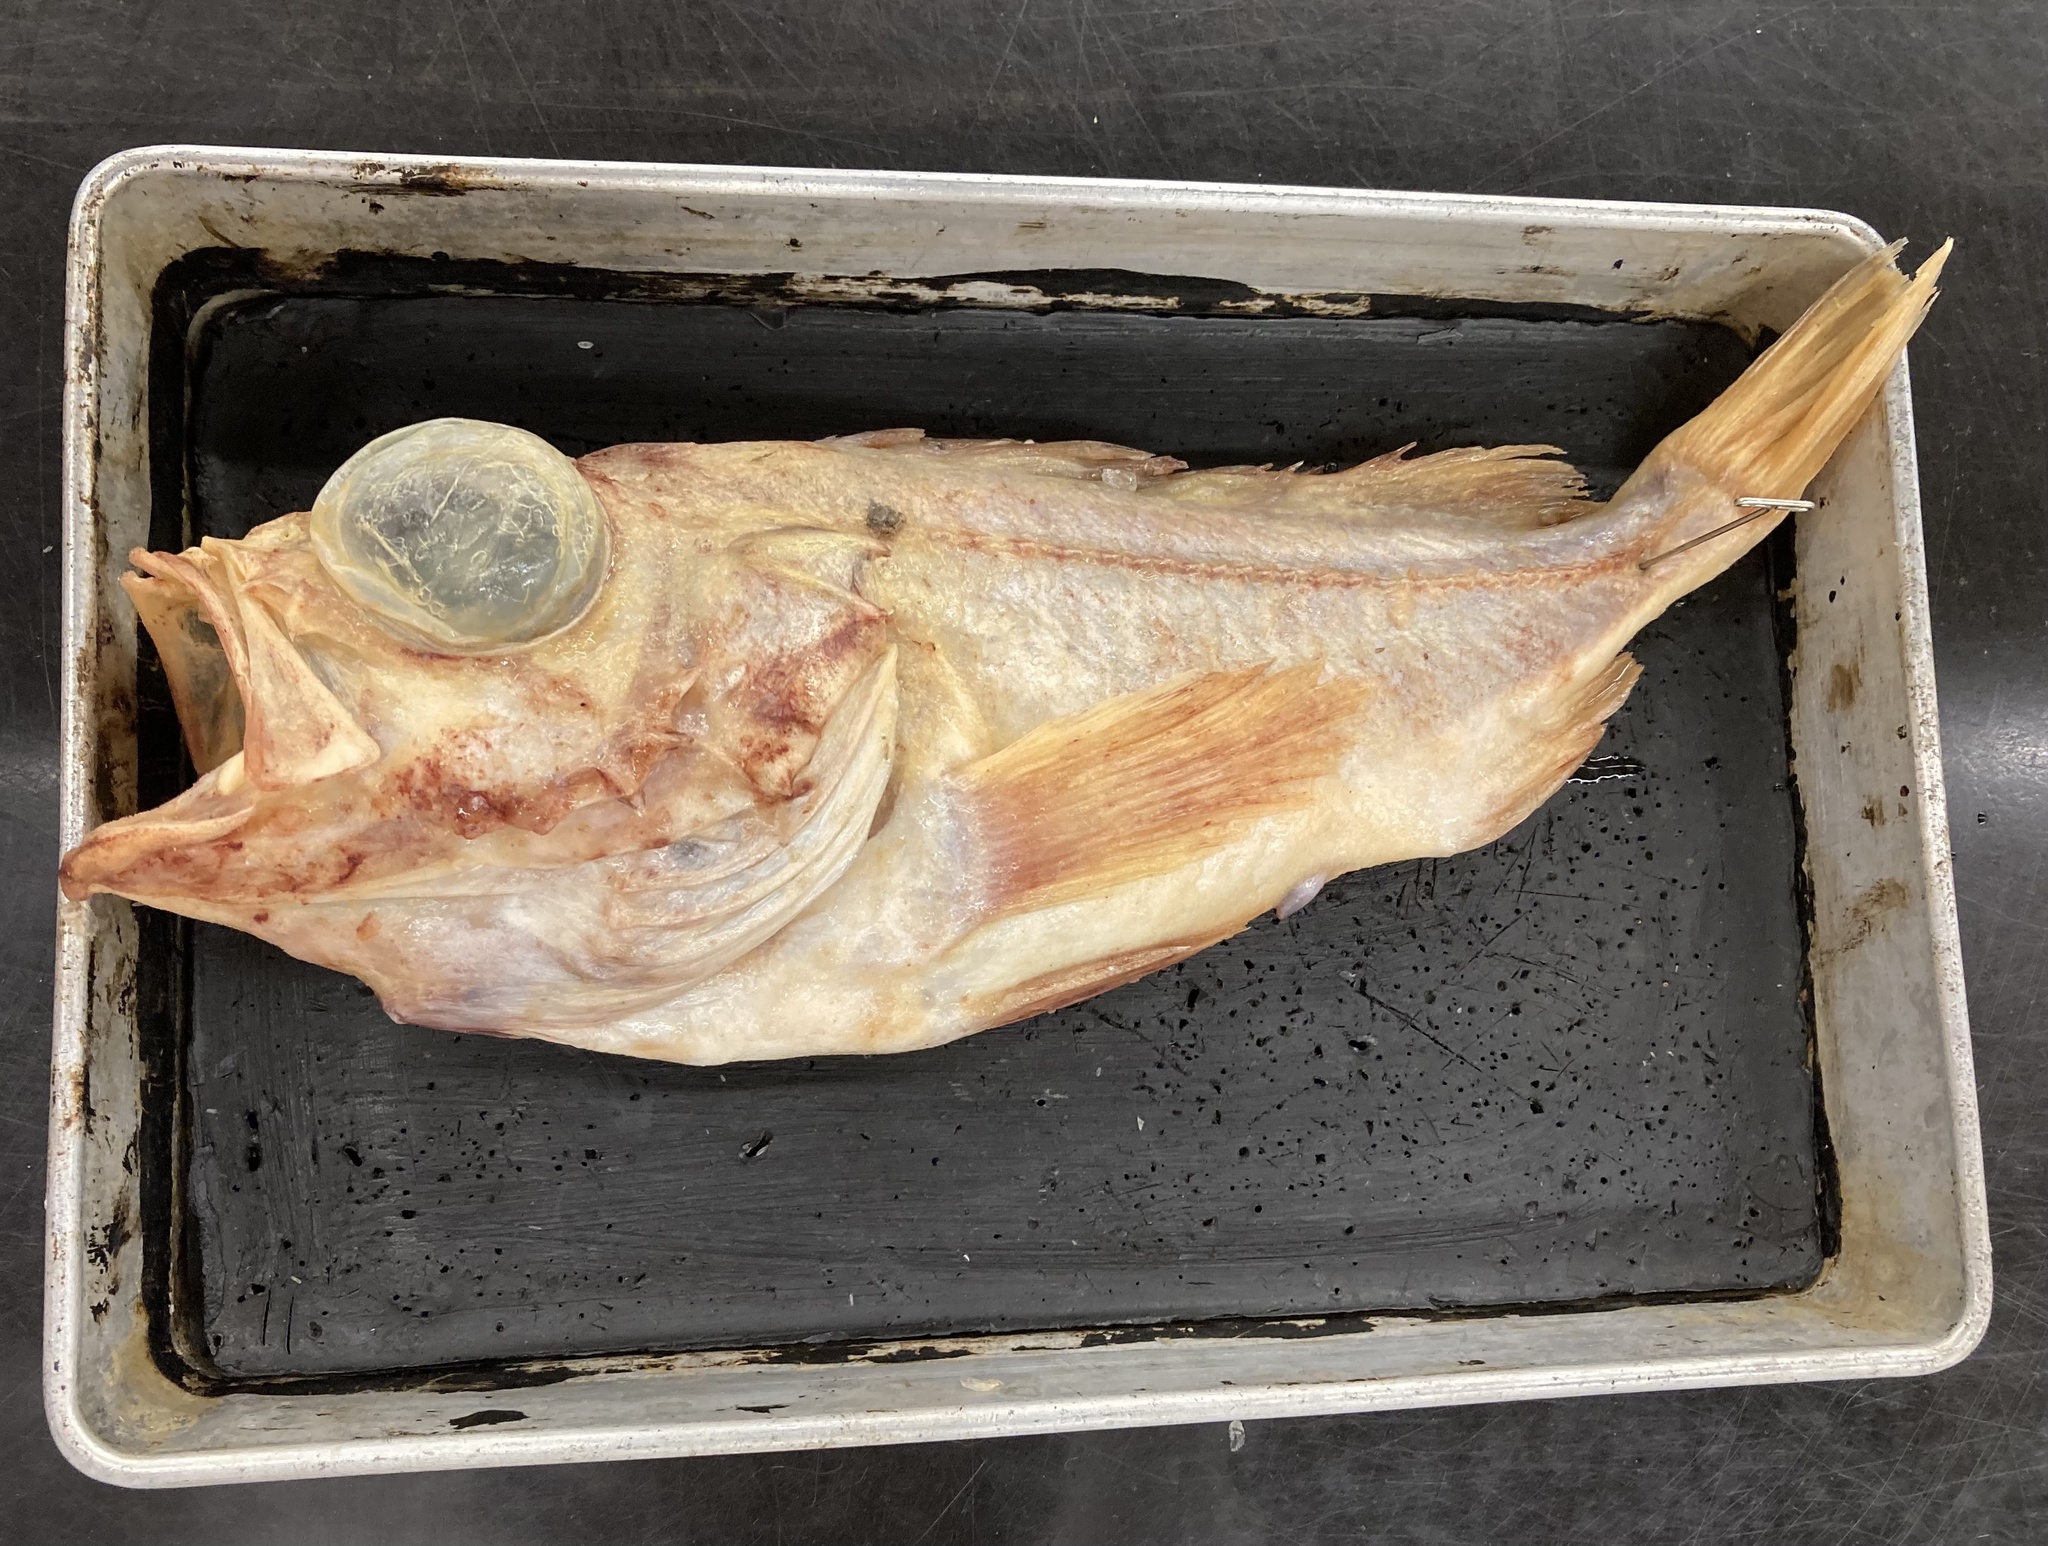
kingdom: Animalia
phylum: Chordata
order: Scorpaeniformes
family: Sebastidae
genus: Sebastes
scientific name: Sebastes diploproa
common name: Splitnose rockfish
